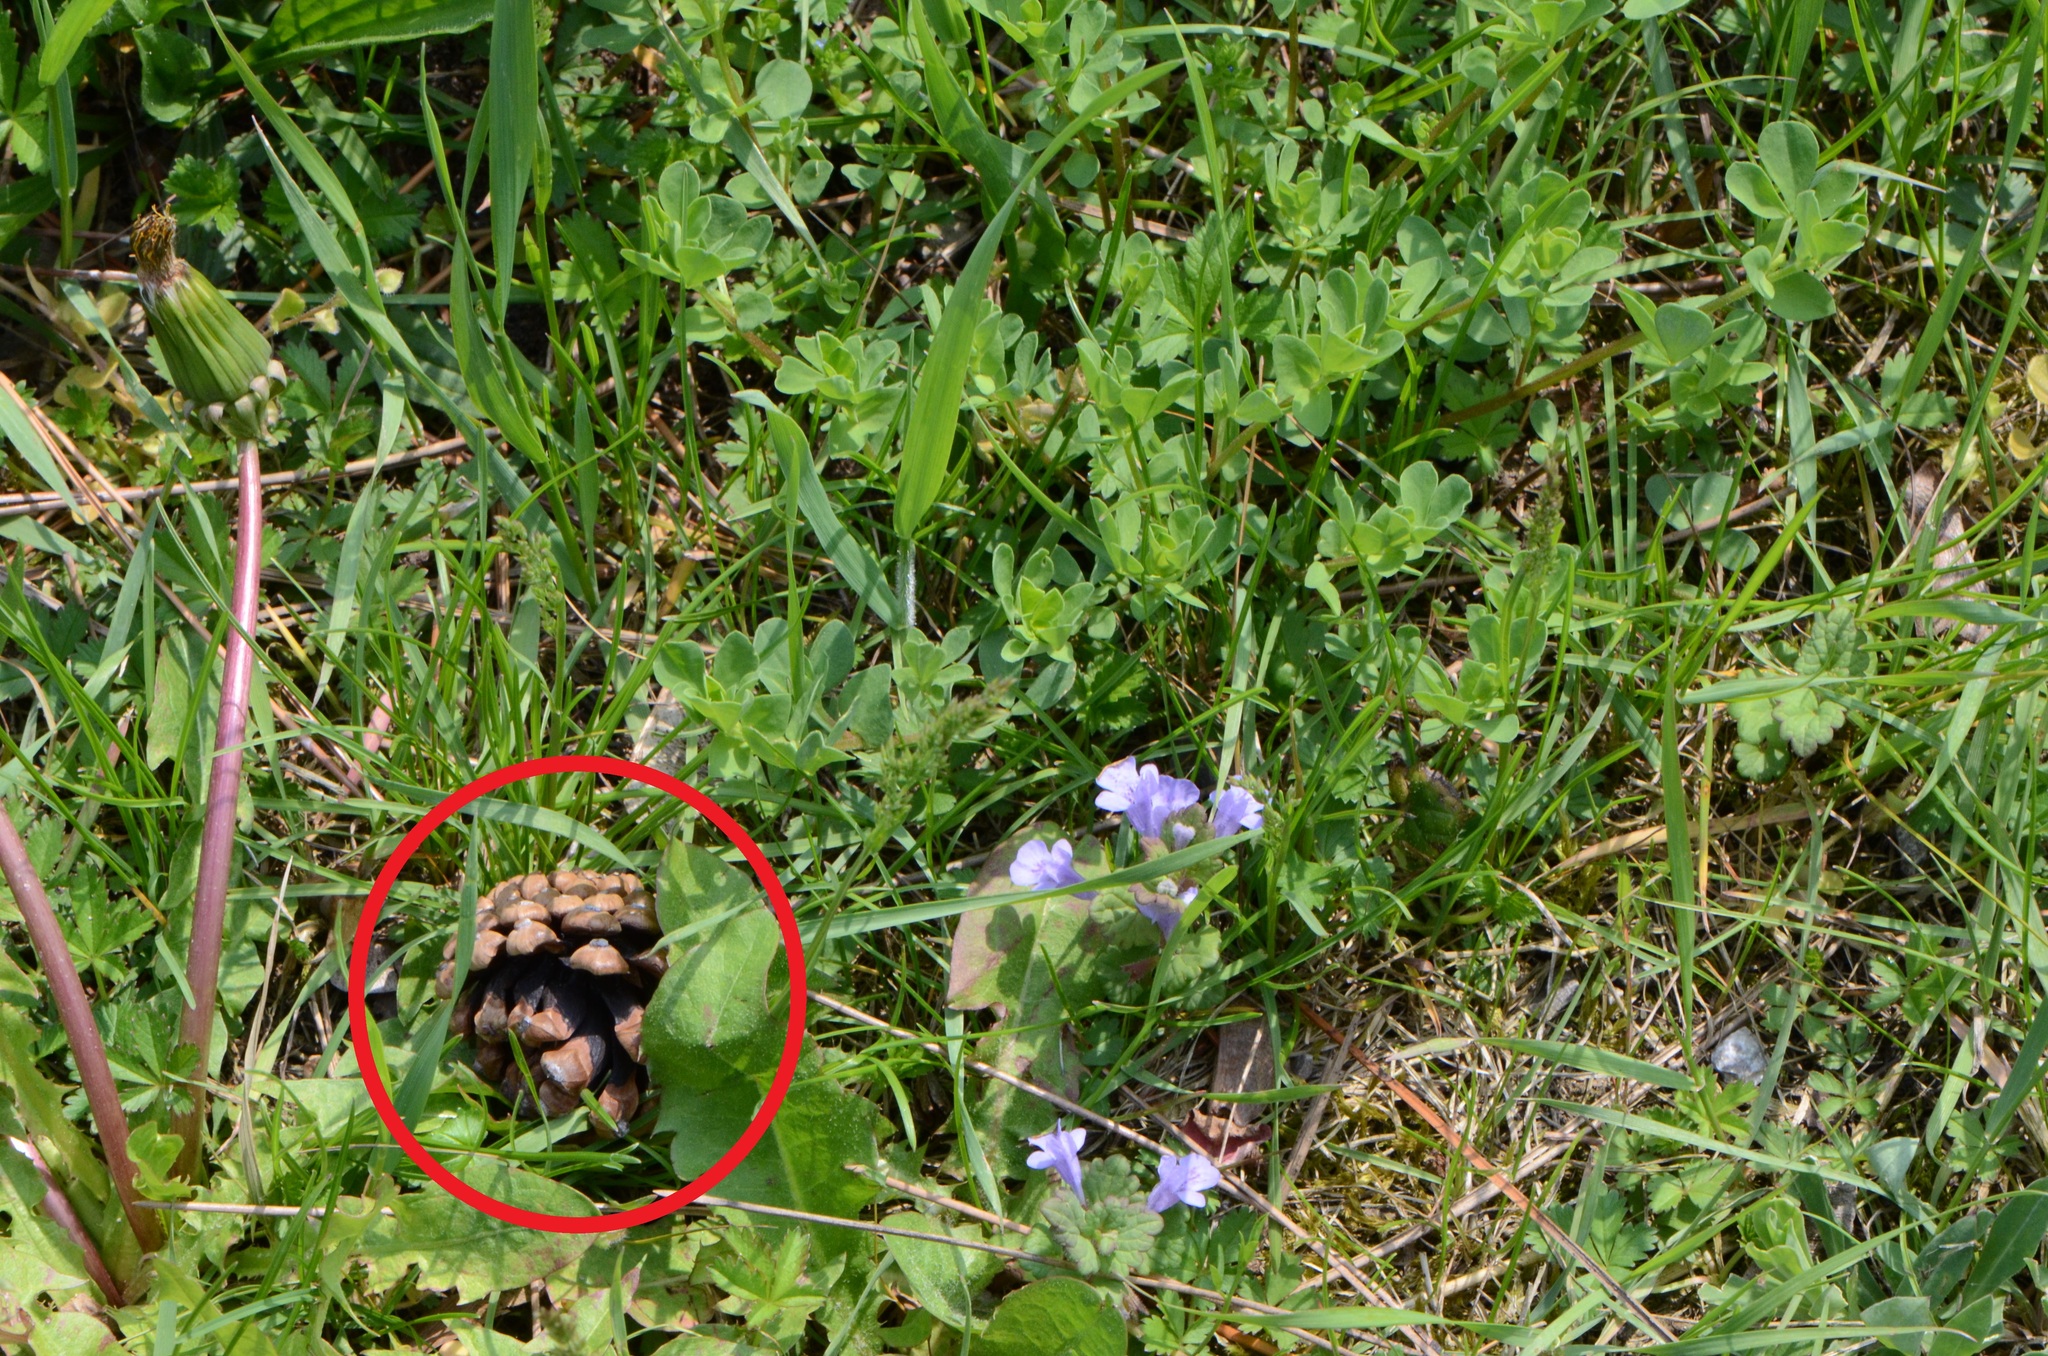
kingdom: Plantae
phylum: Tracheophyta
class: Pinopsida
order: Pinales
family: Pinaceae
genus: Pinus
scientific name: Pinus sylvestris
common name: Scots pine
